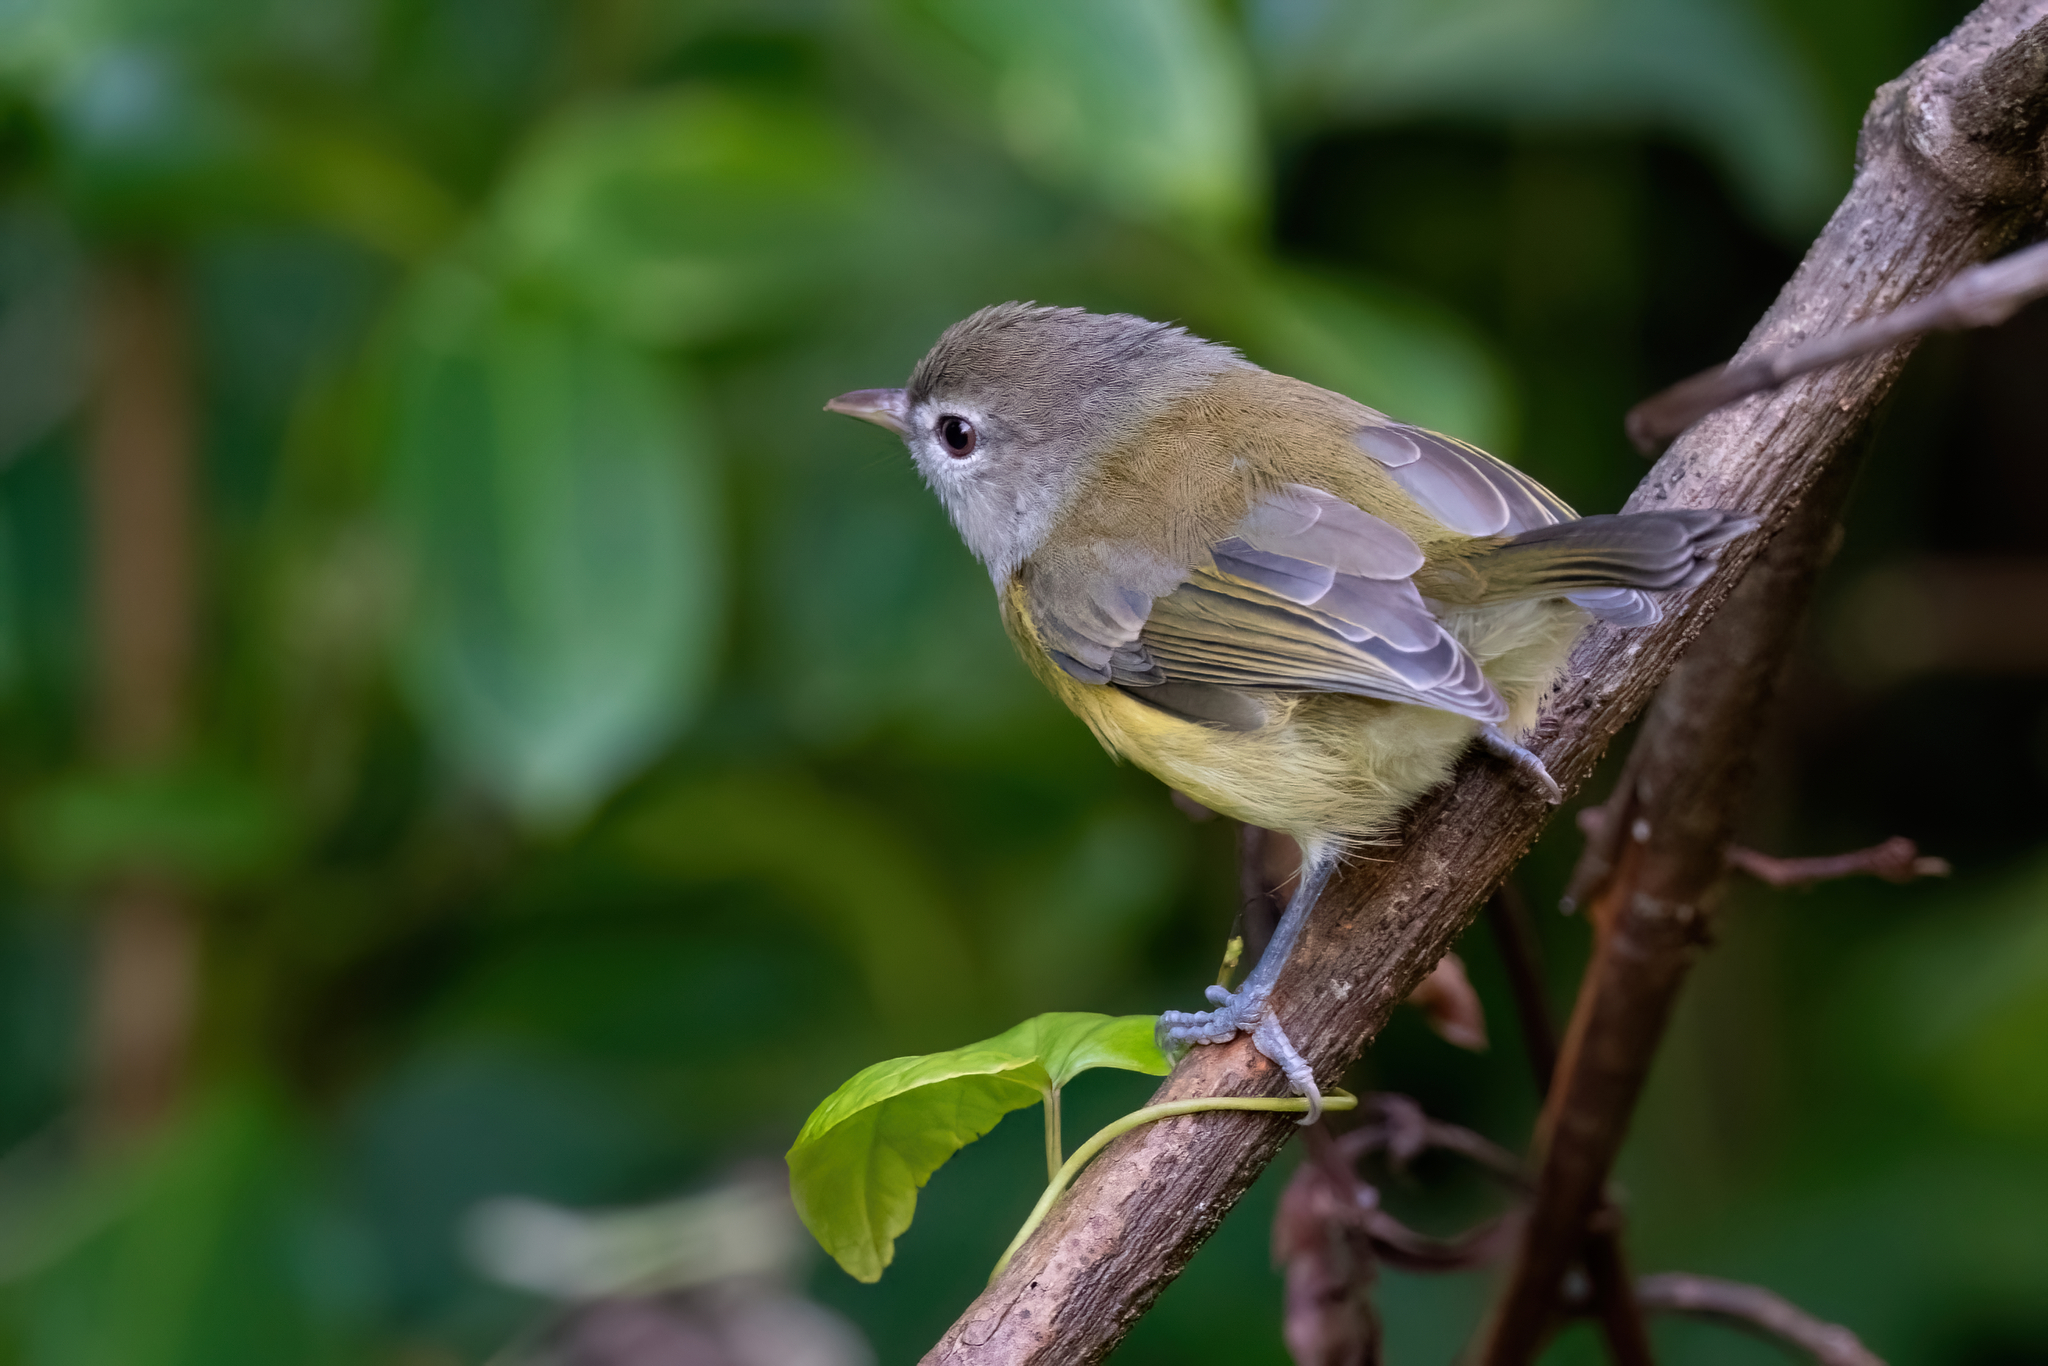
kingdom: Animalia
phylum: Chordata
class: Aves
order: Passeriformes
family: Vireonidae
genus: Vireo
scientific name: Vireo latimeri
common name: Puerto rican vireo
